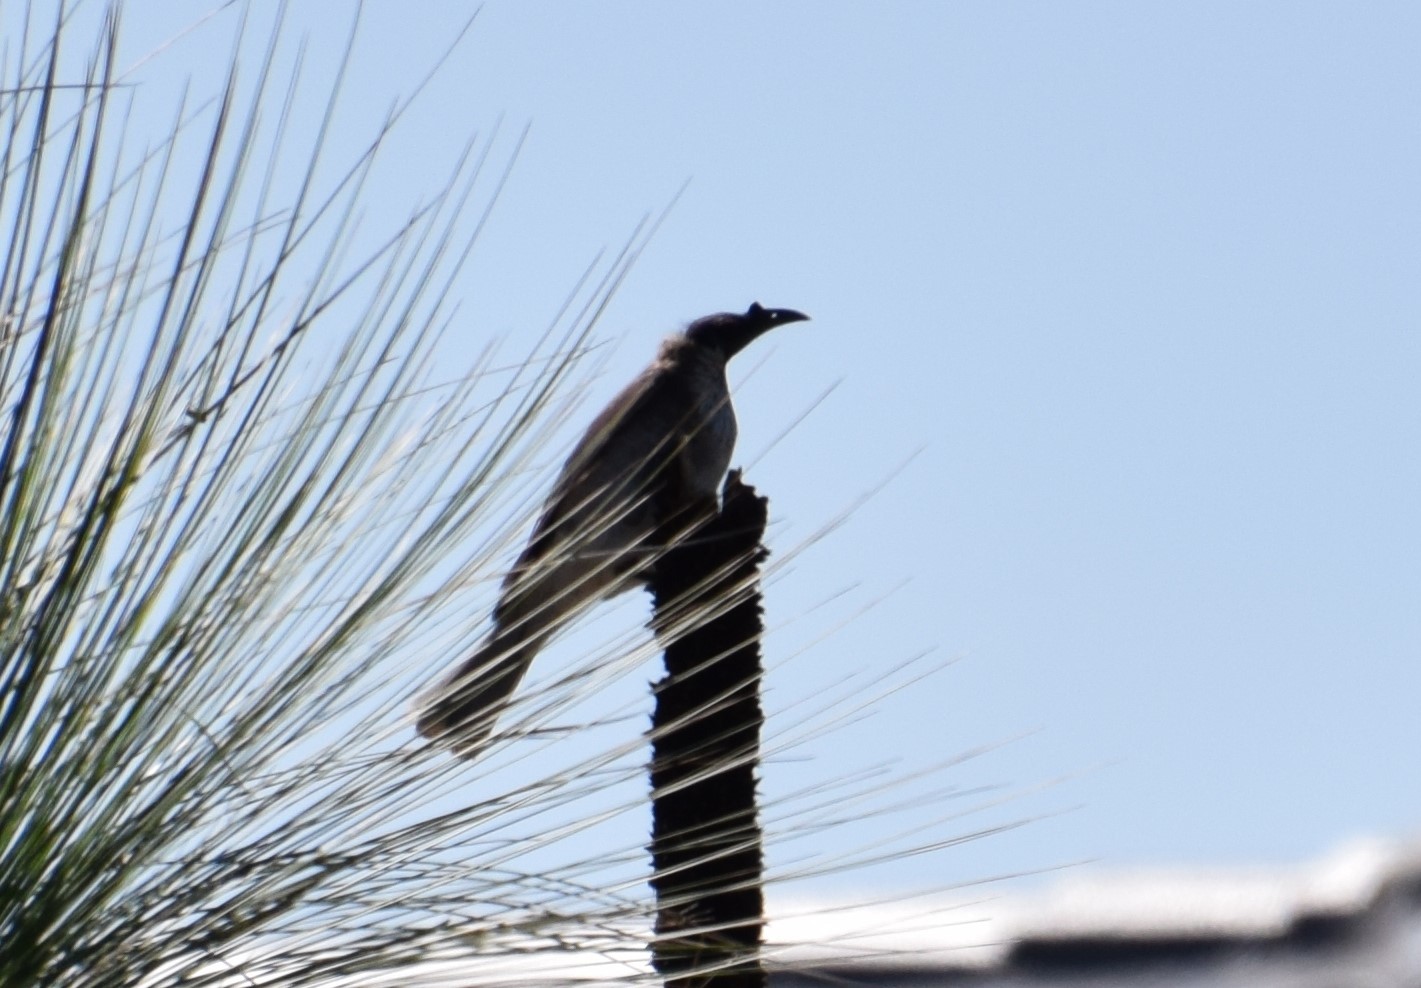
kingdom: Animalia
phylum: Chordata
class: Aves
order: Passeriformes
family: Meliphagidae
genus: Philemon
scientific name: Philemon corniculatus
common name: Noisy friarbird
